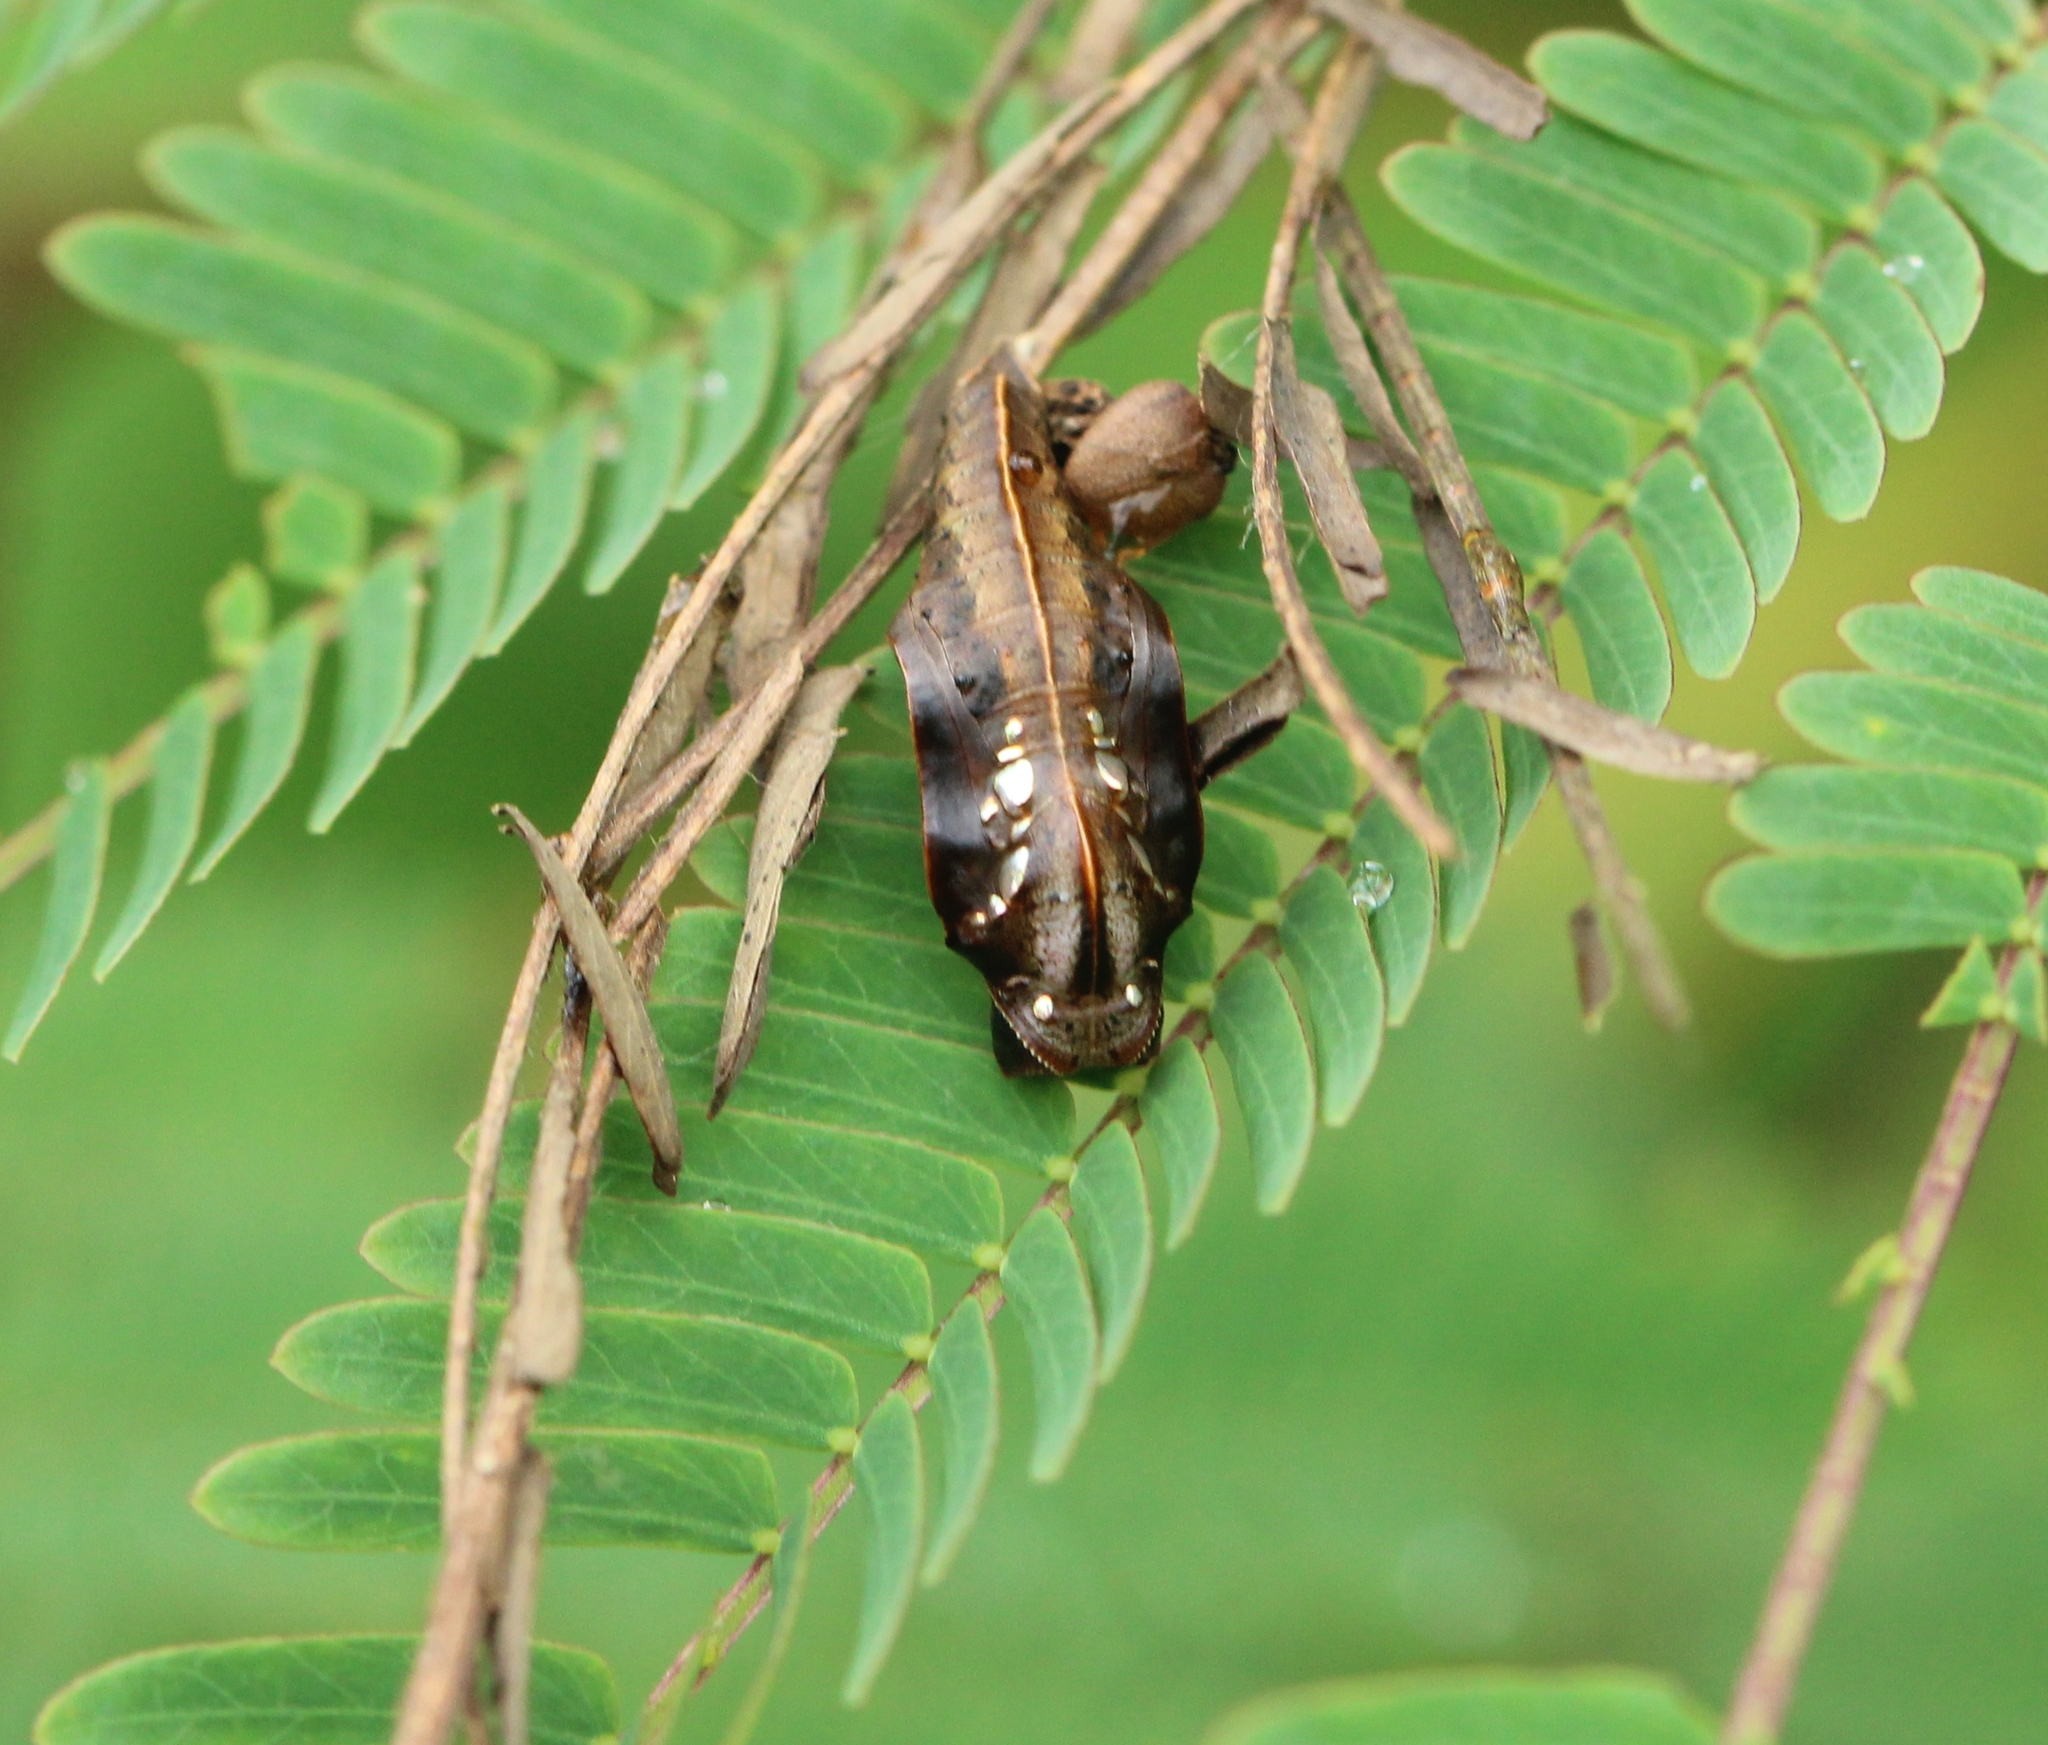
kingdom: Animalia
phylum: Arthropoda
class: Insecta
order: Lepidoptera
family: Nymphalidae
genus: Pantoporia
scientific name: Pantoporia hordonia
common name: Common lascar
